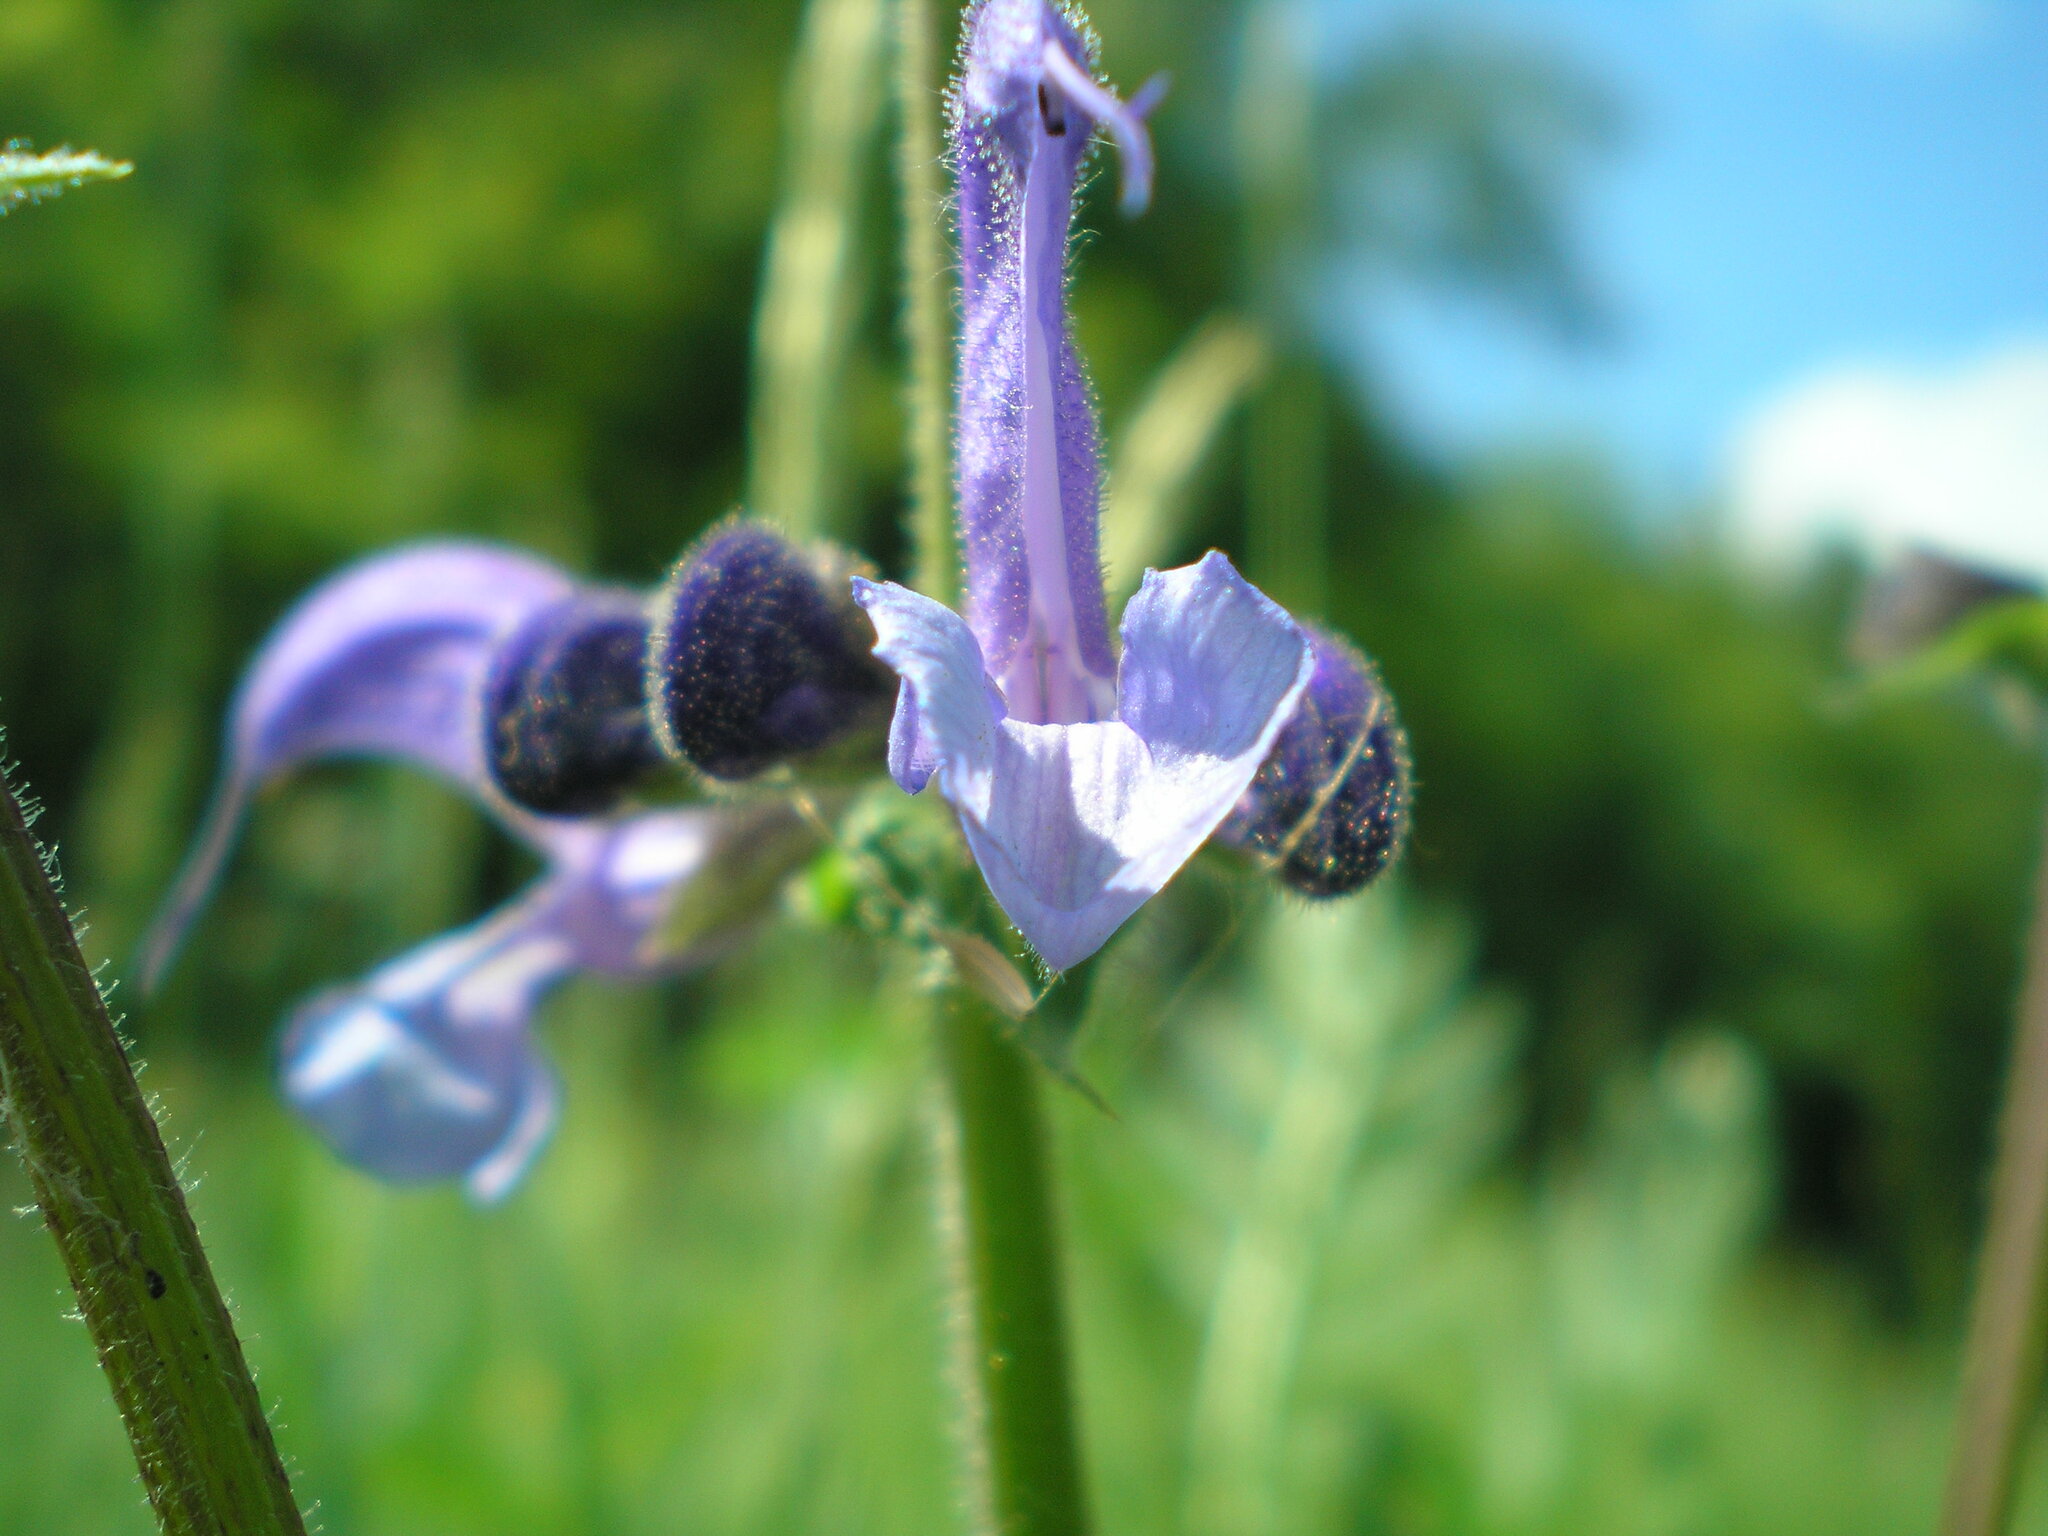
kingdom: Plantae
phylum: Tracheophyta
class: Magnoliopsida
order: Lamiales
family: Lamiaceae
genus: Salvia
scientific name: Salvia pratensis
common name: Meadow sage
